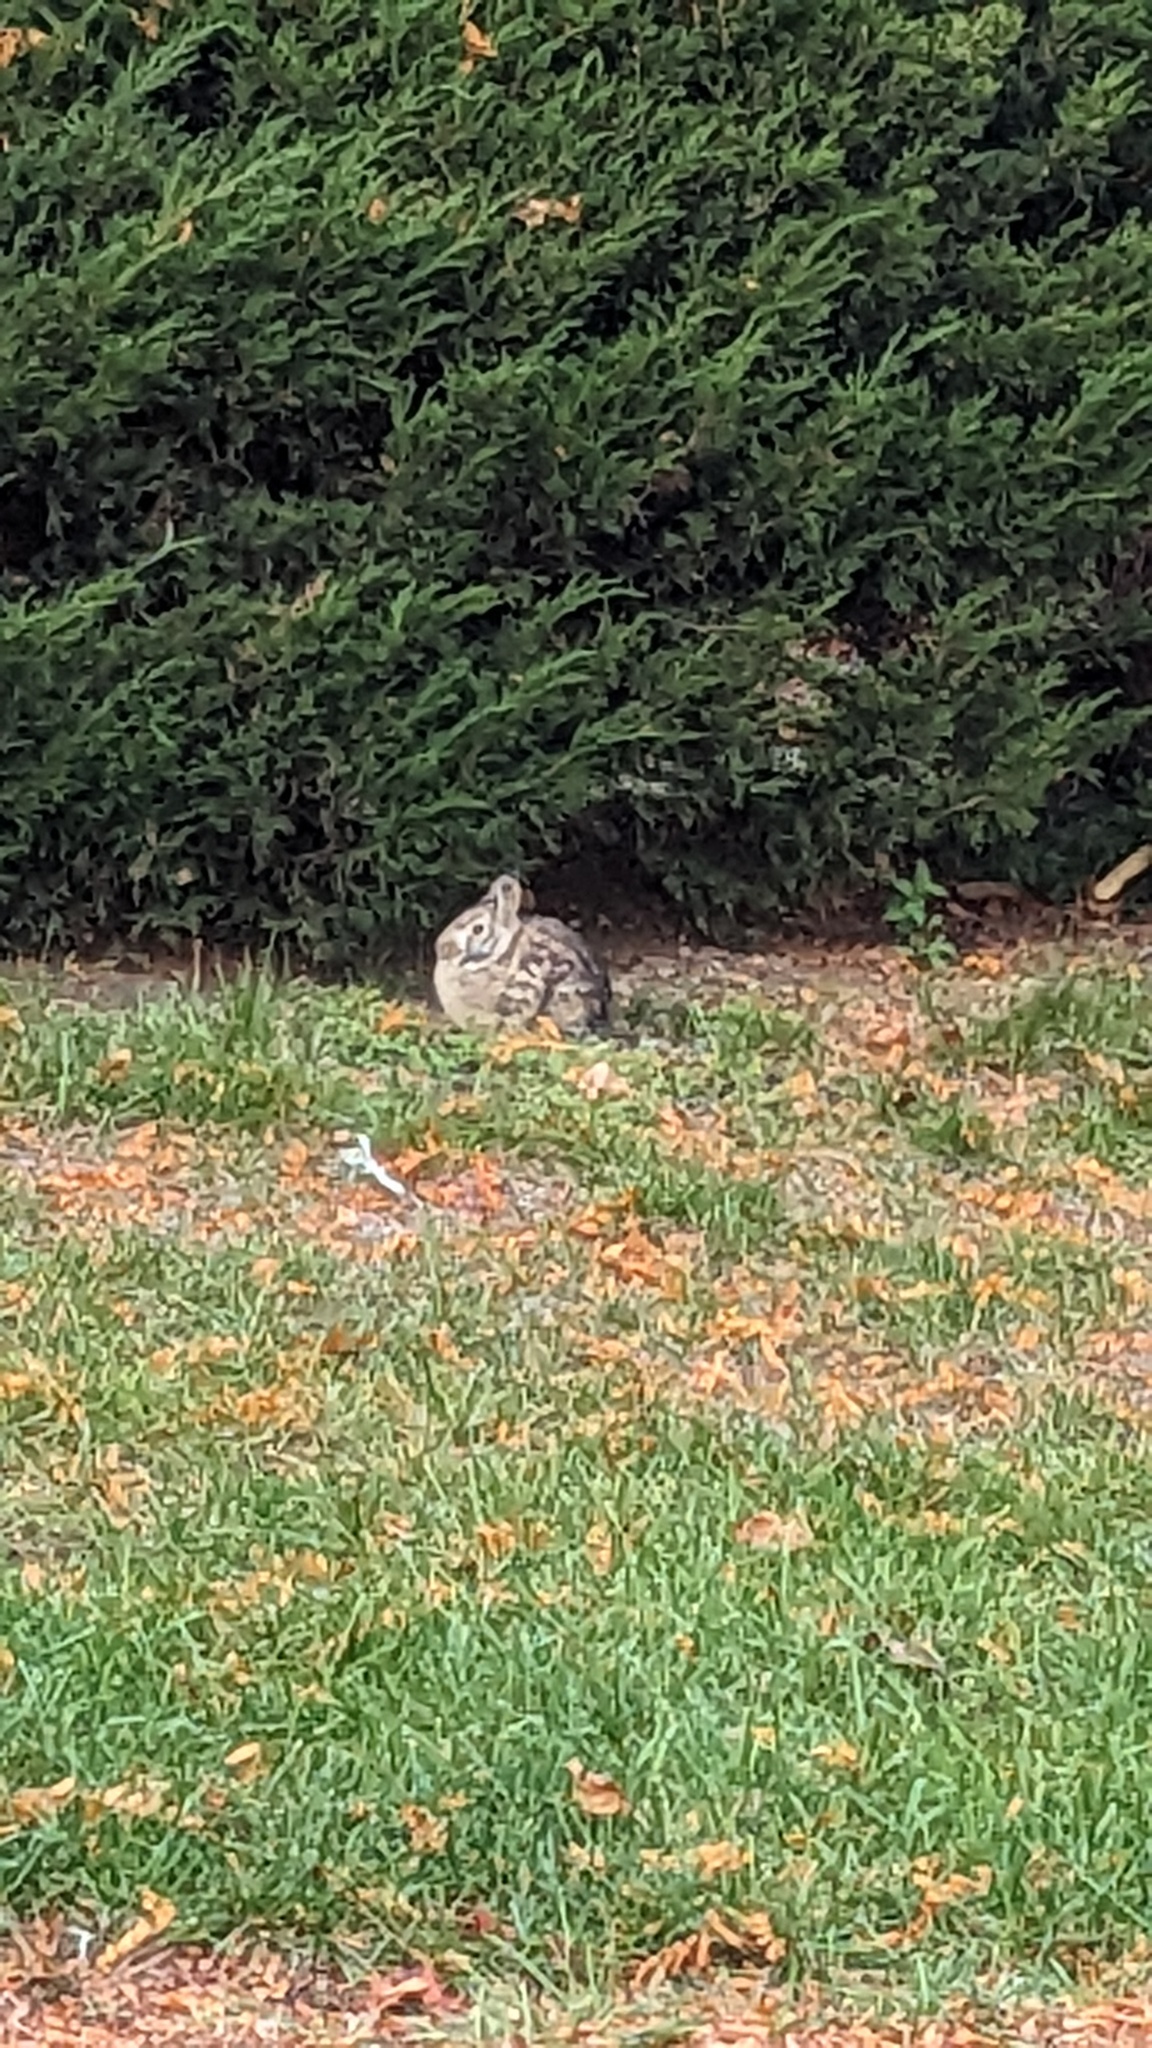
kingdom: Animalia
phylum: Chordata
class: Mammalia
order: Lagomorpha
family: Leporidae
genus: Sylvilagus
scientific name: Sylvilagus floridanus
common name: Eastern cottontail
